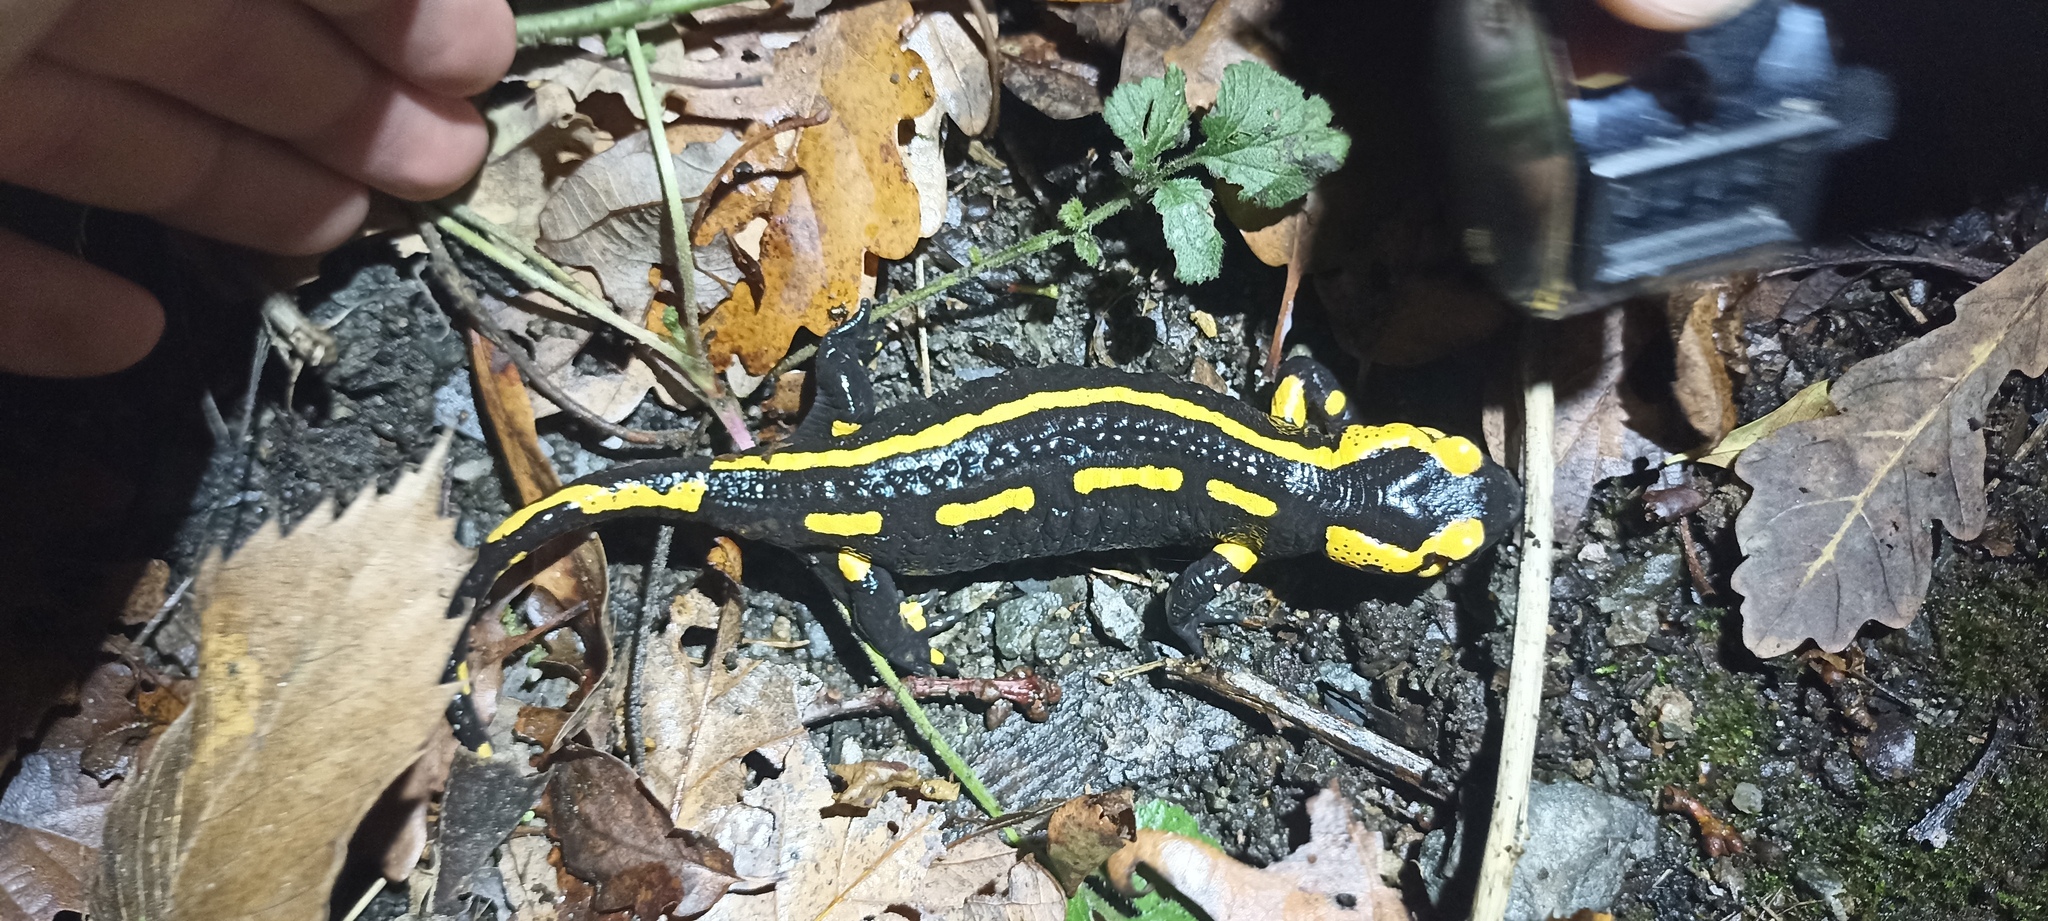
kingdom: Animalia
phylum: Chordata
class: Amphibia
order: Caudata
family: Salamandridae
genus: Salamandra
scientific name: Salamandra salamandra
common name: Fire salamander
